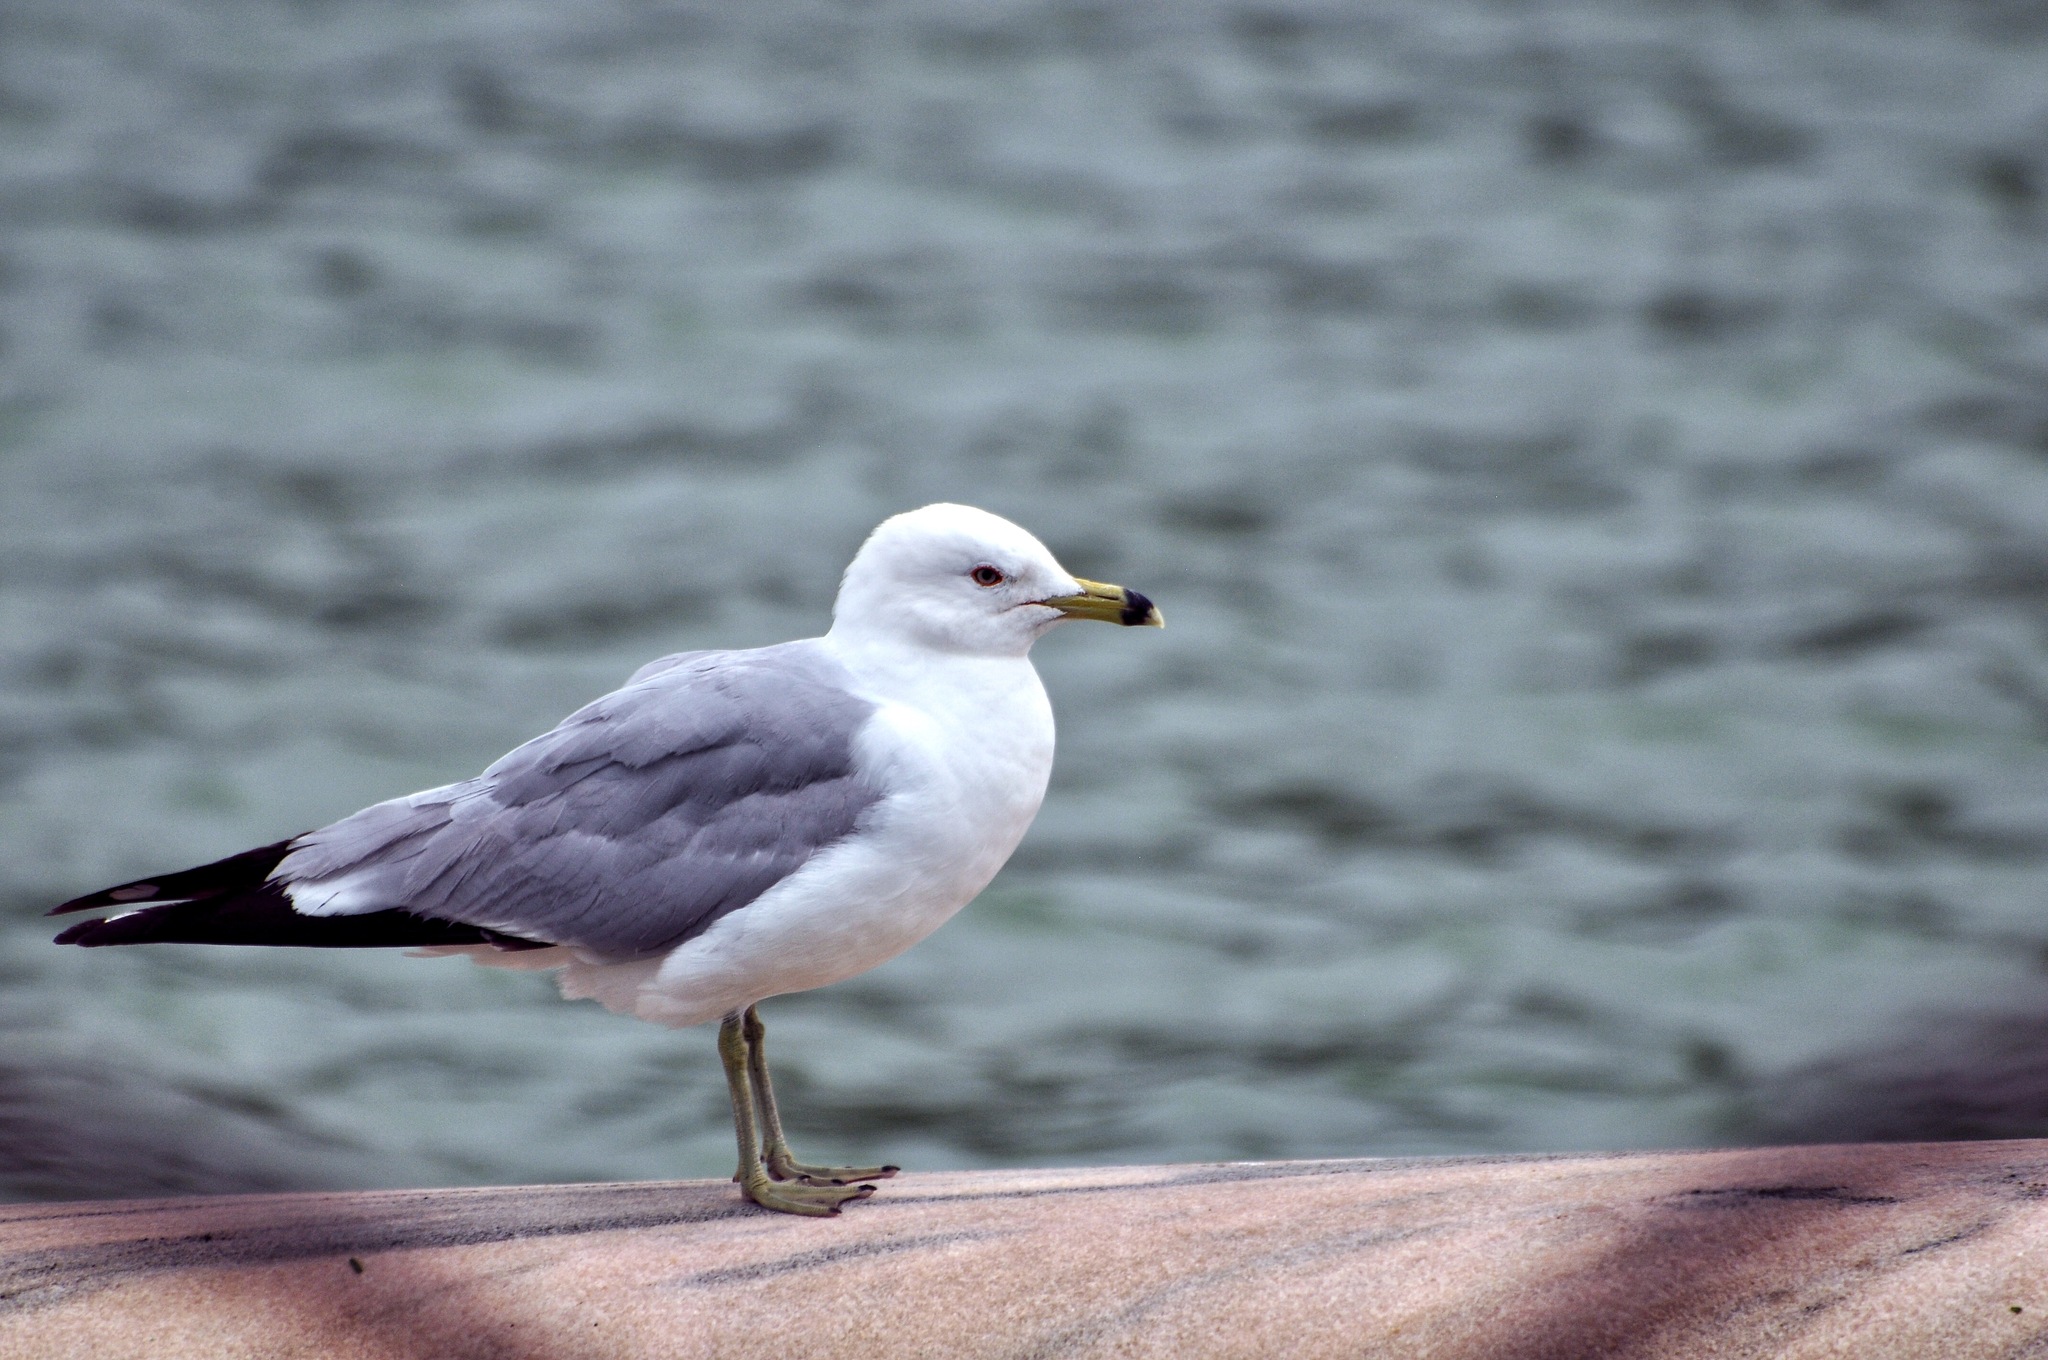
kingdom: Animalia
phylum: Chordata
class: Aves
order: Charadriiformes
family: Laridae
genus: Larus
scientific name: Larus delawarensis
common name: Ring-billed gull
